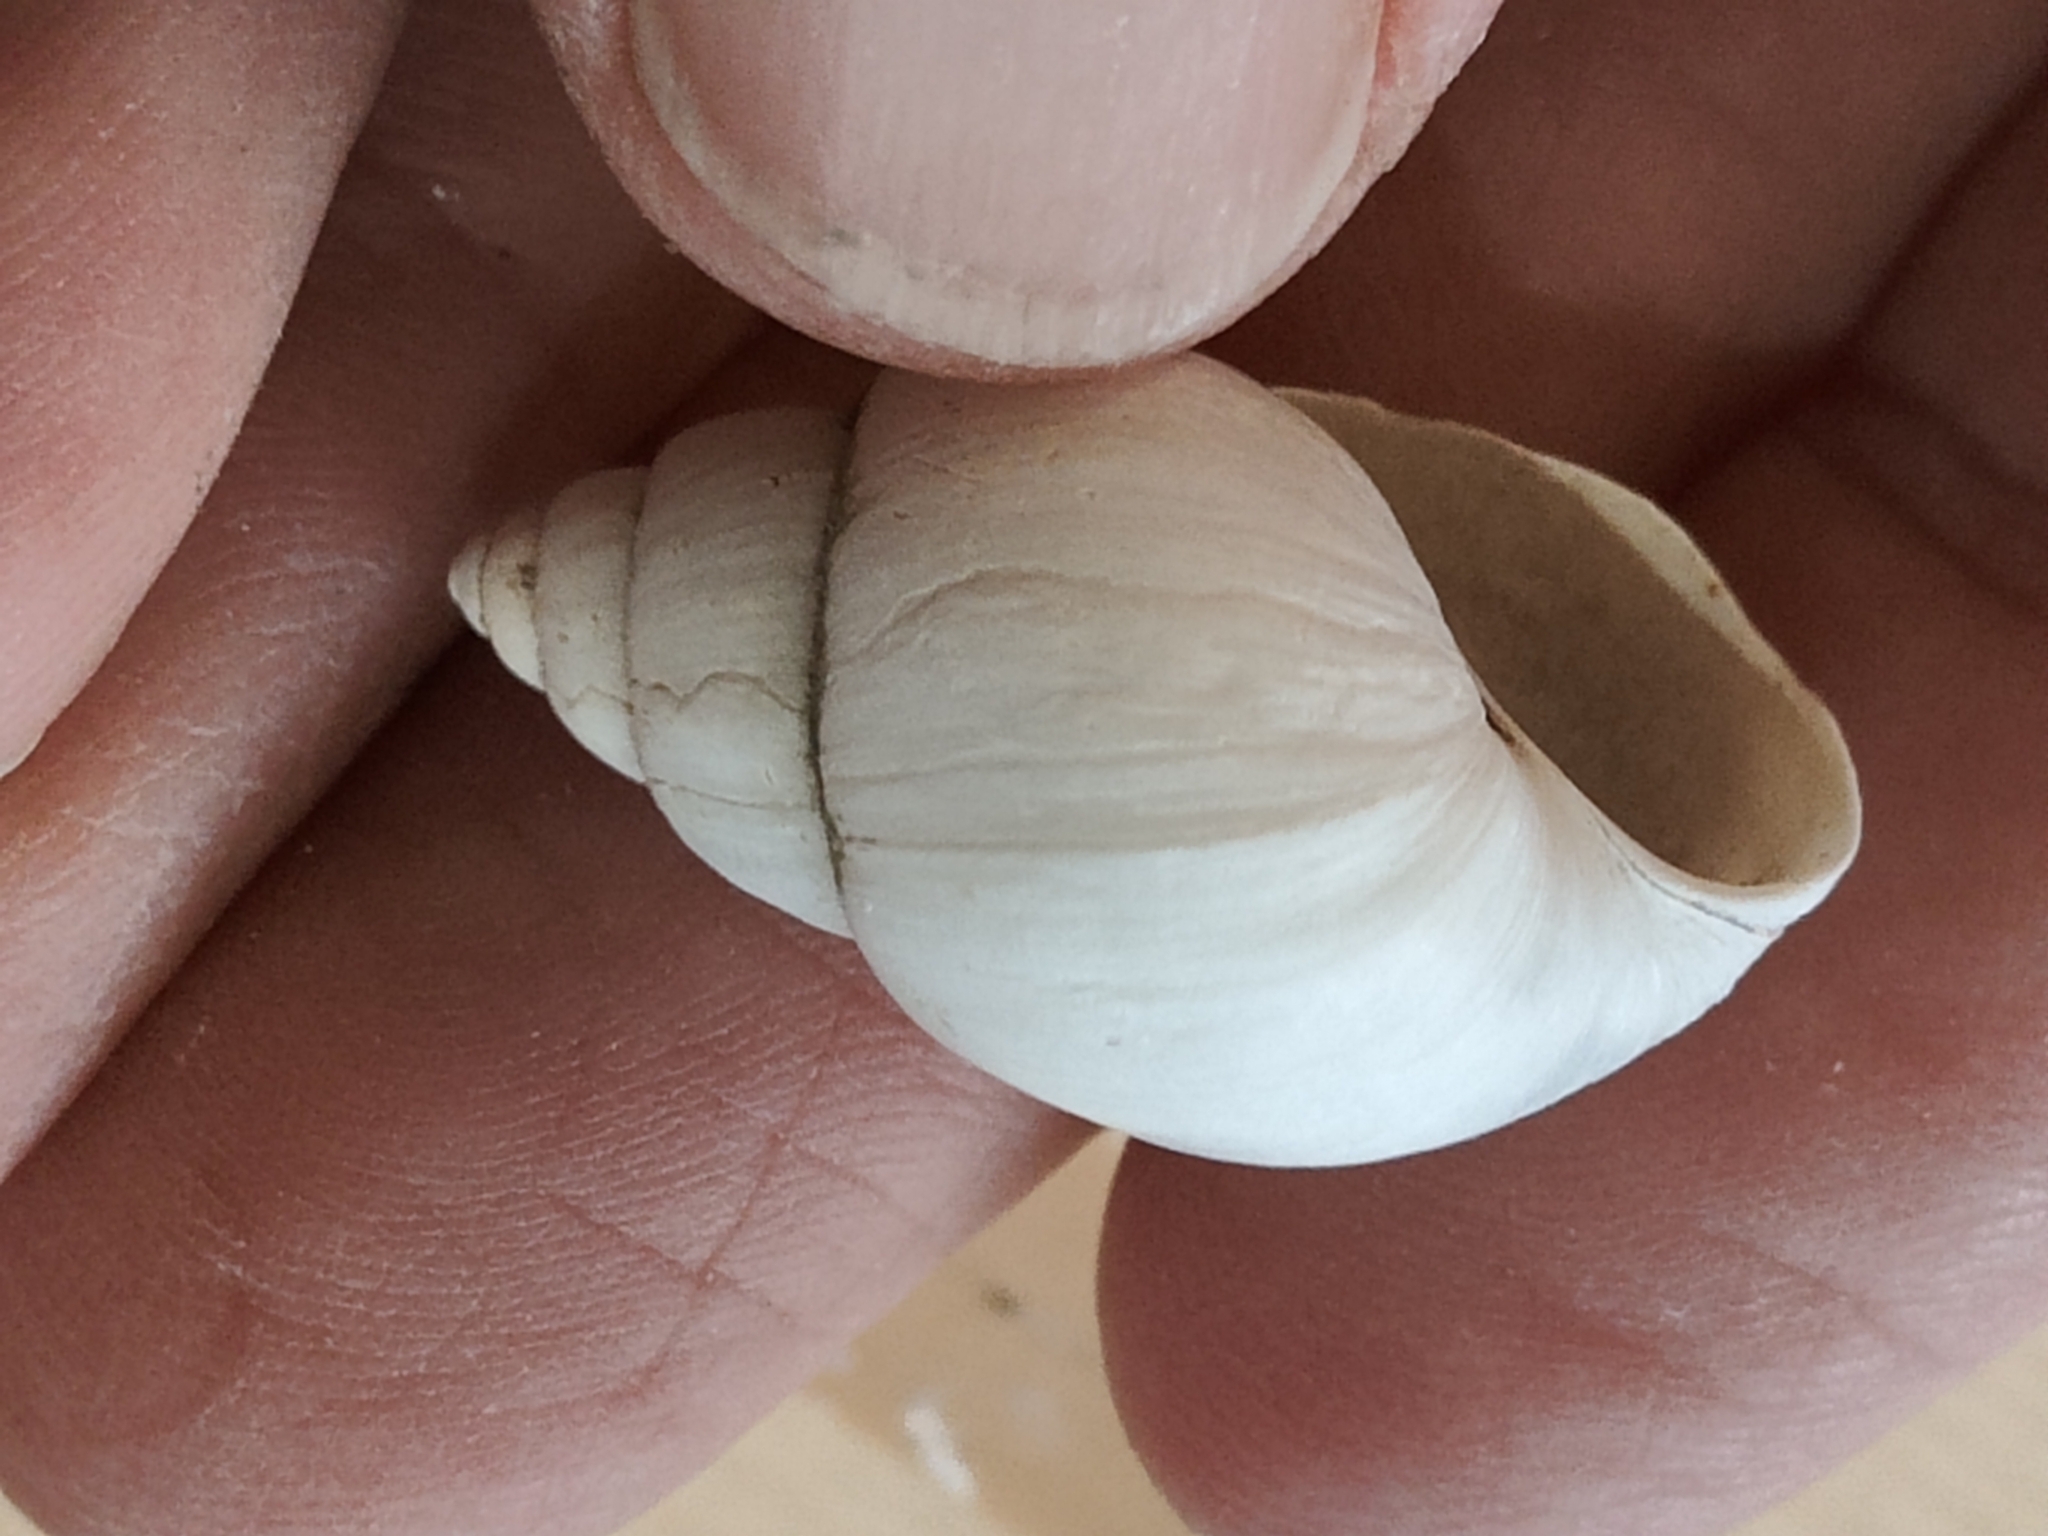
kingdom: Animalia
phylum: Mollusca
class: Gastropoda
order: Architaenioglossa
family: Viviparidae
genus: Campeloma
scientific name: Campeloma decisum
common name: Pointed campeloma
